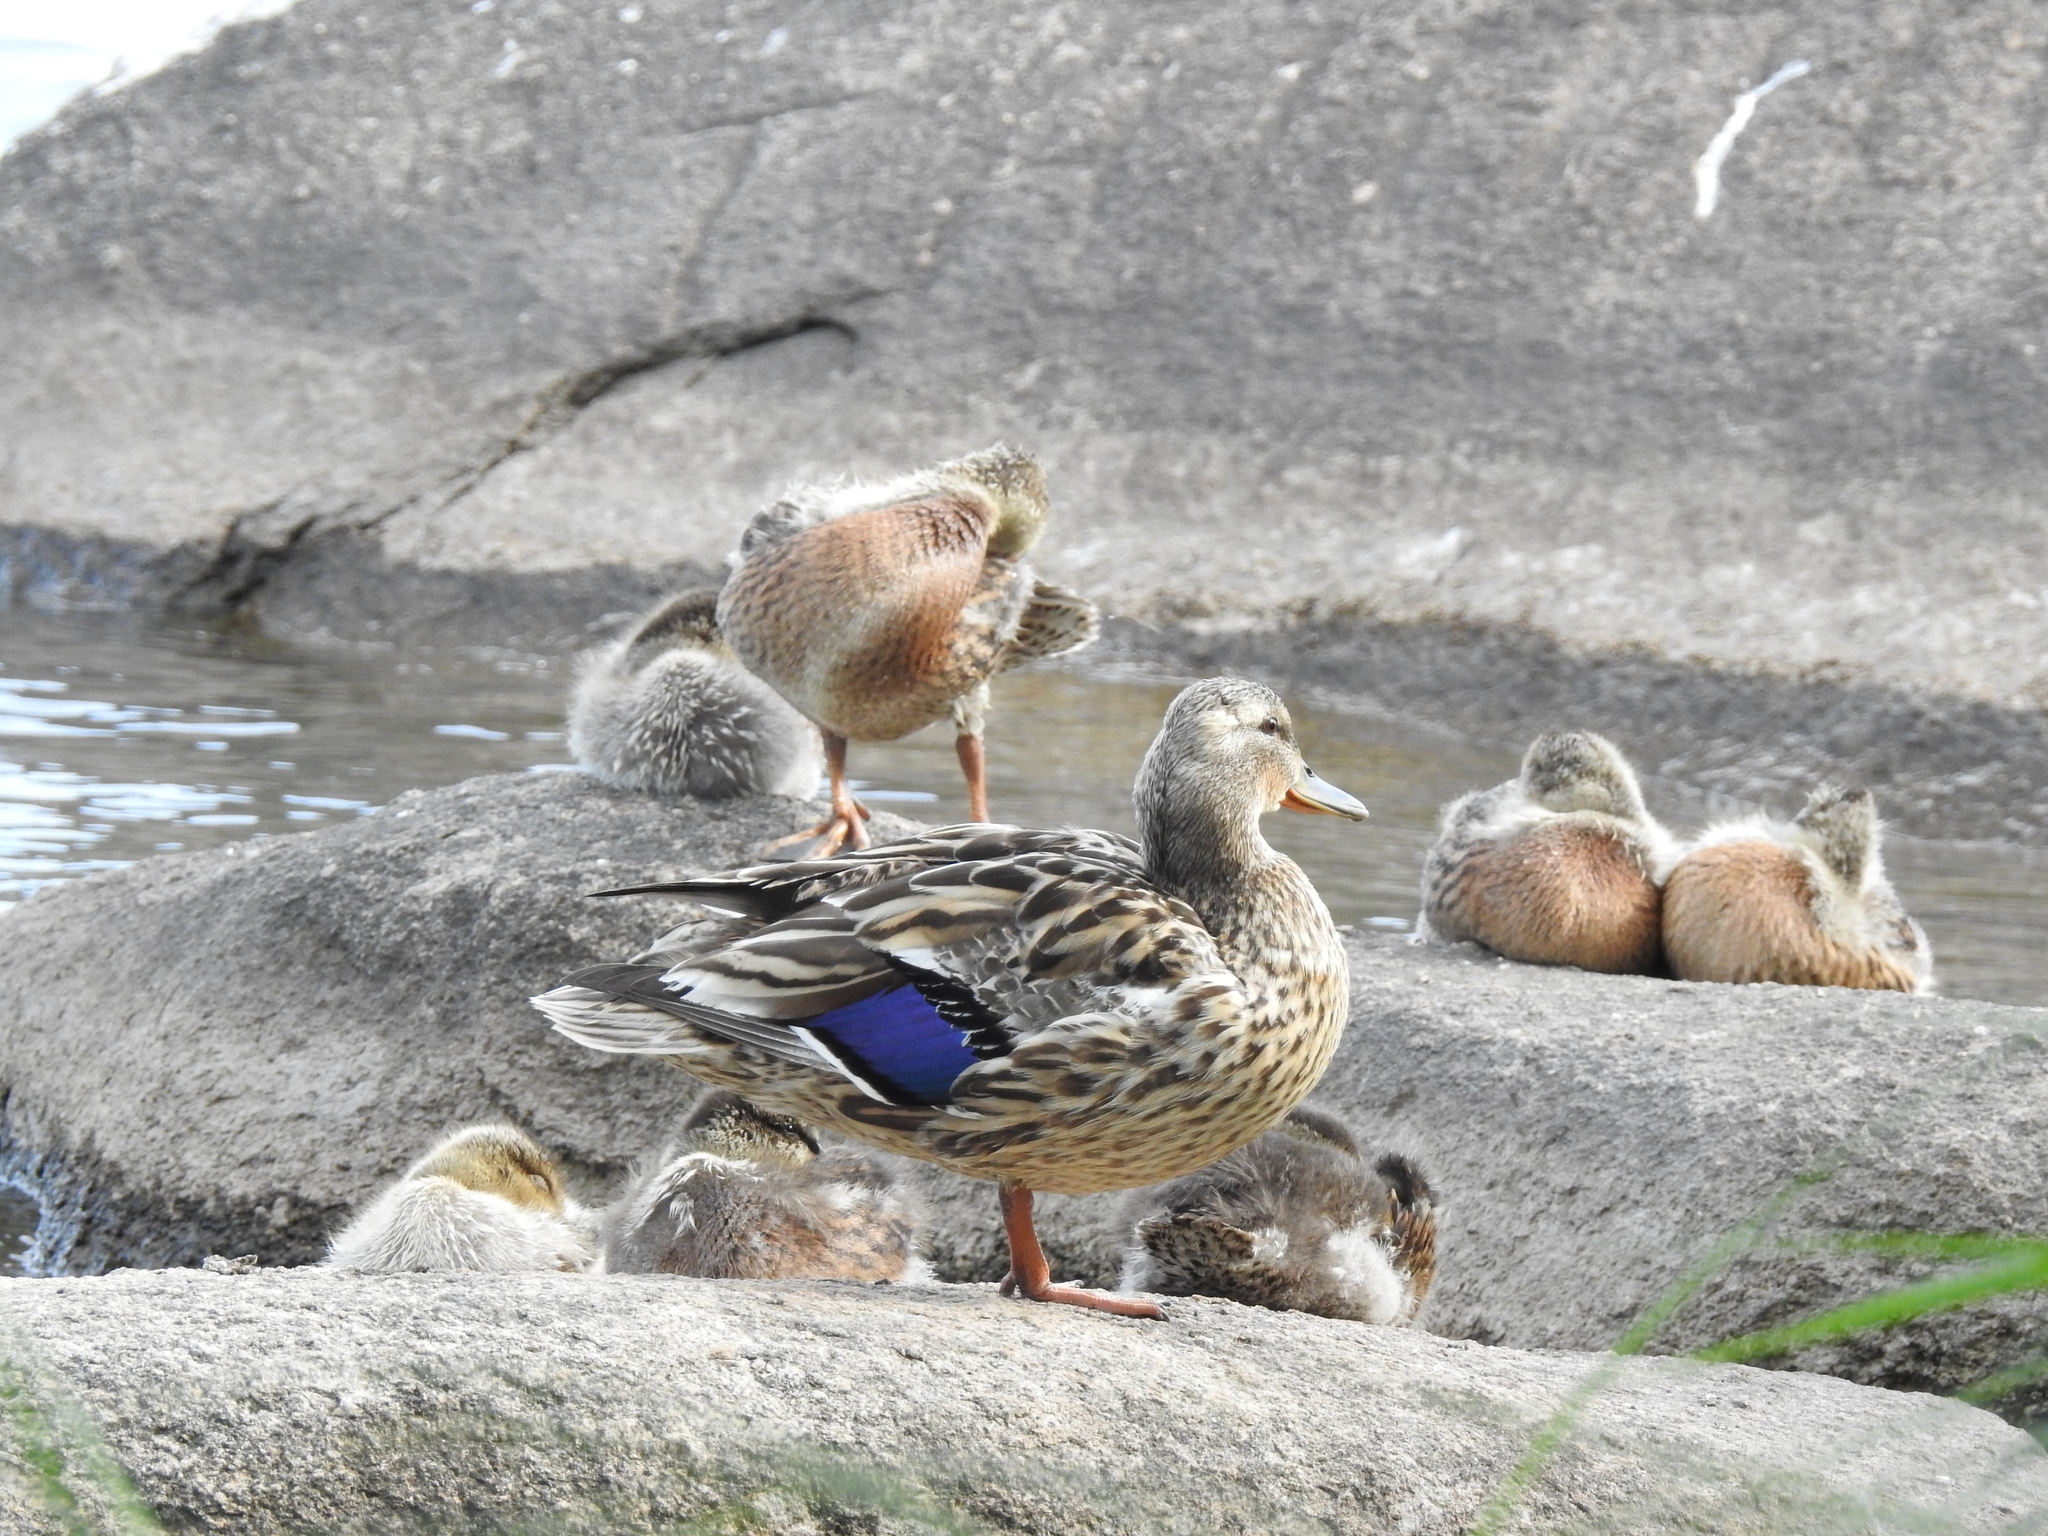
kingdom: Animalia
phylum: Chordata
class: Aves
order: Anseriformes
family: Anatidae
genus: Anas
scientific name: Anas platyrhynchos
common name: Mallard
